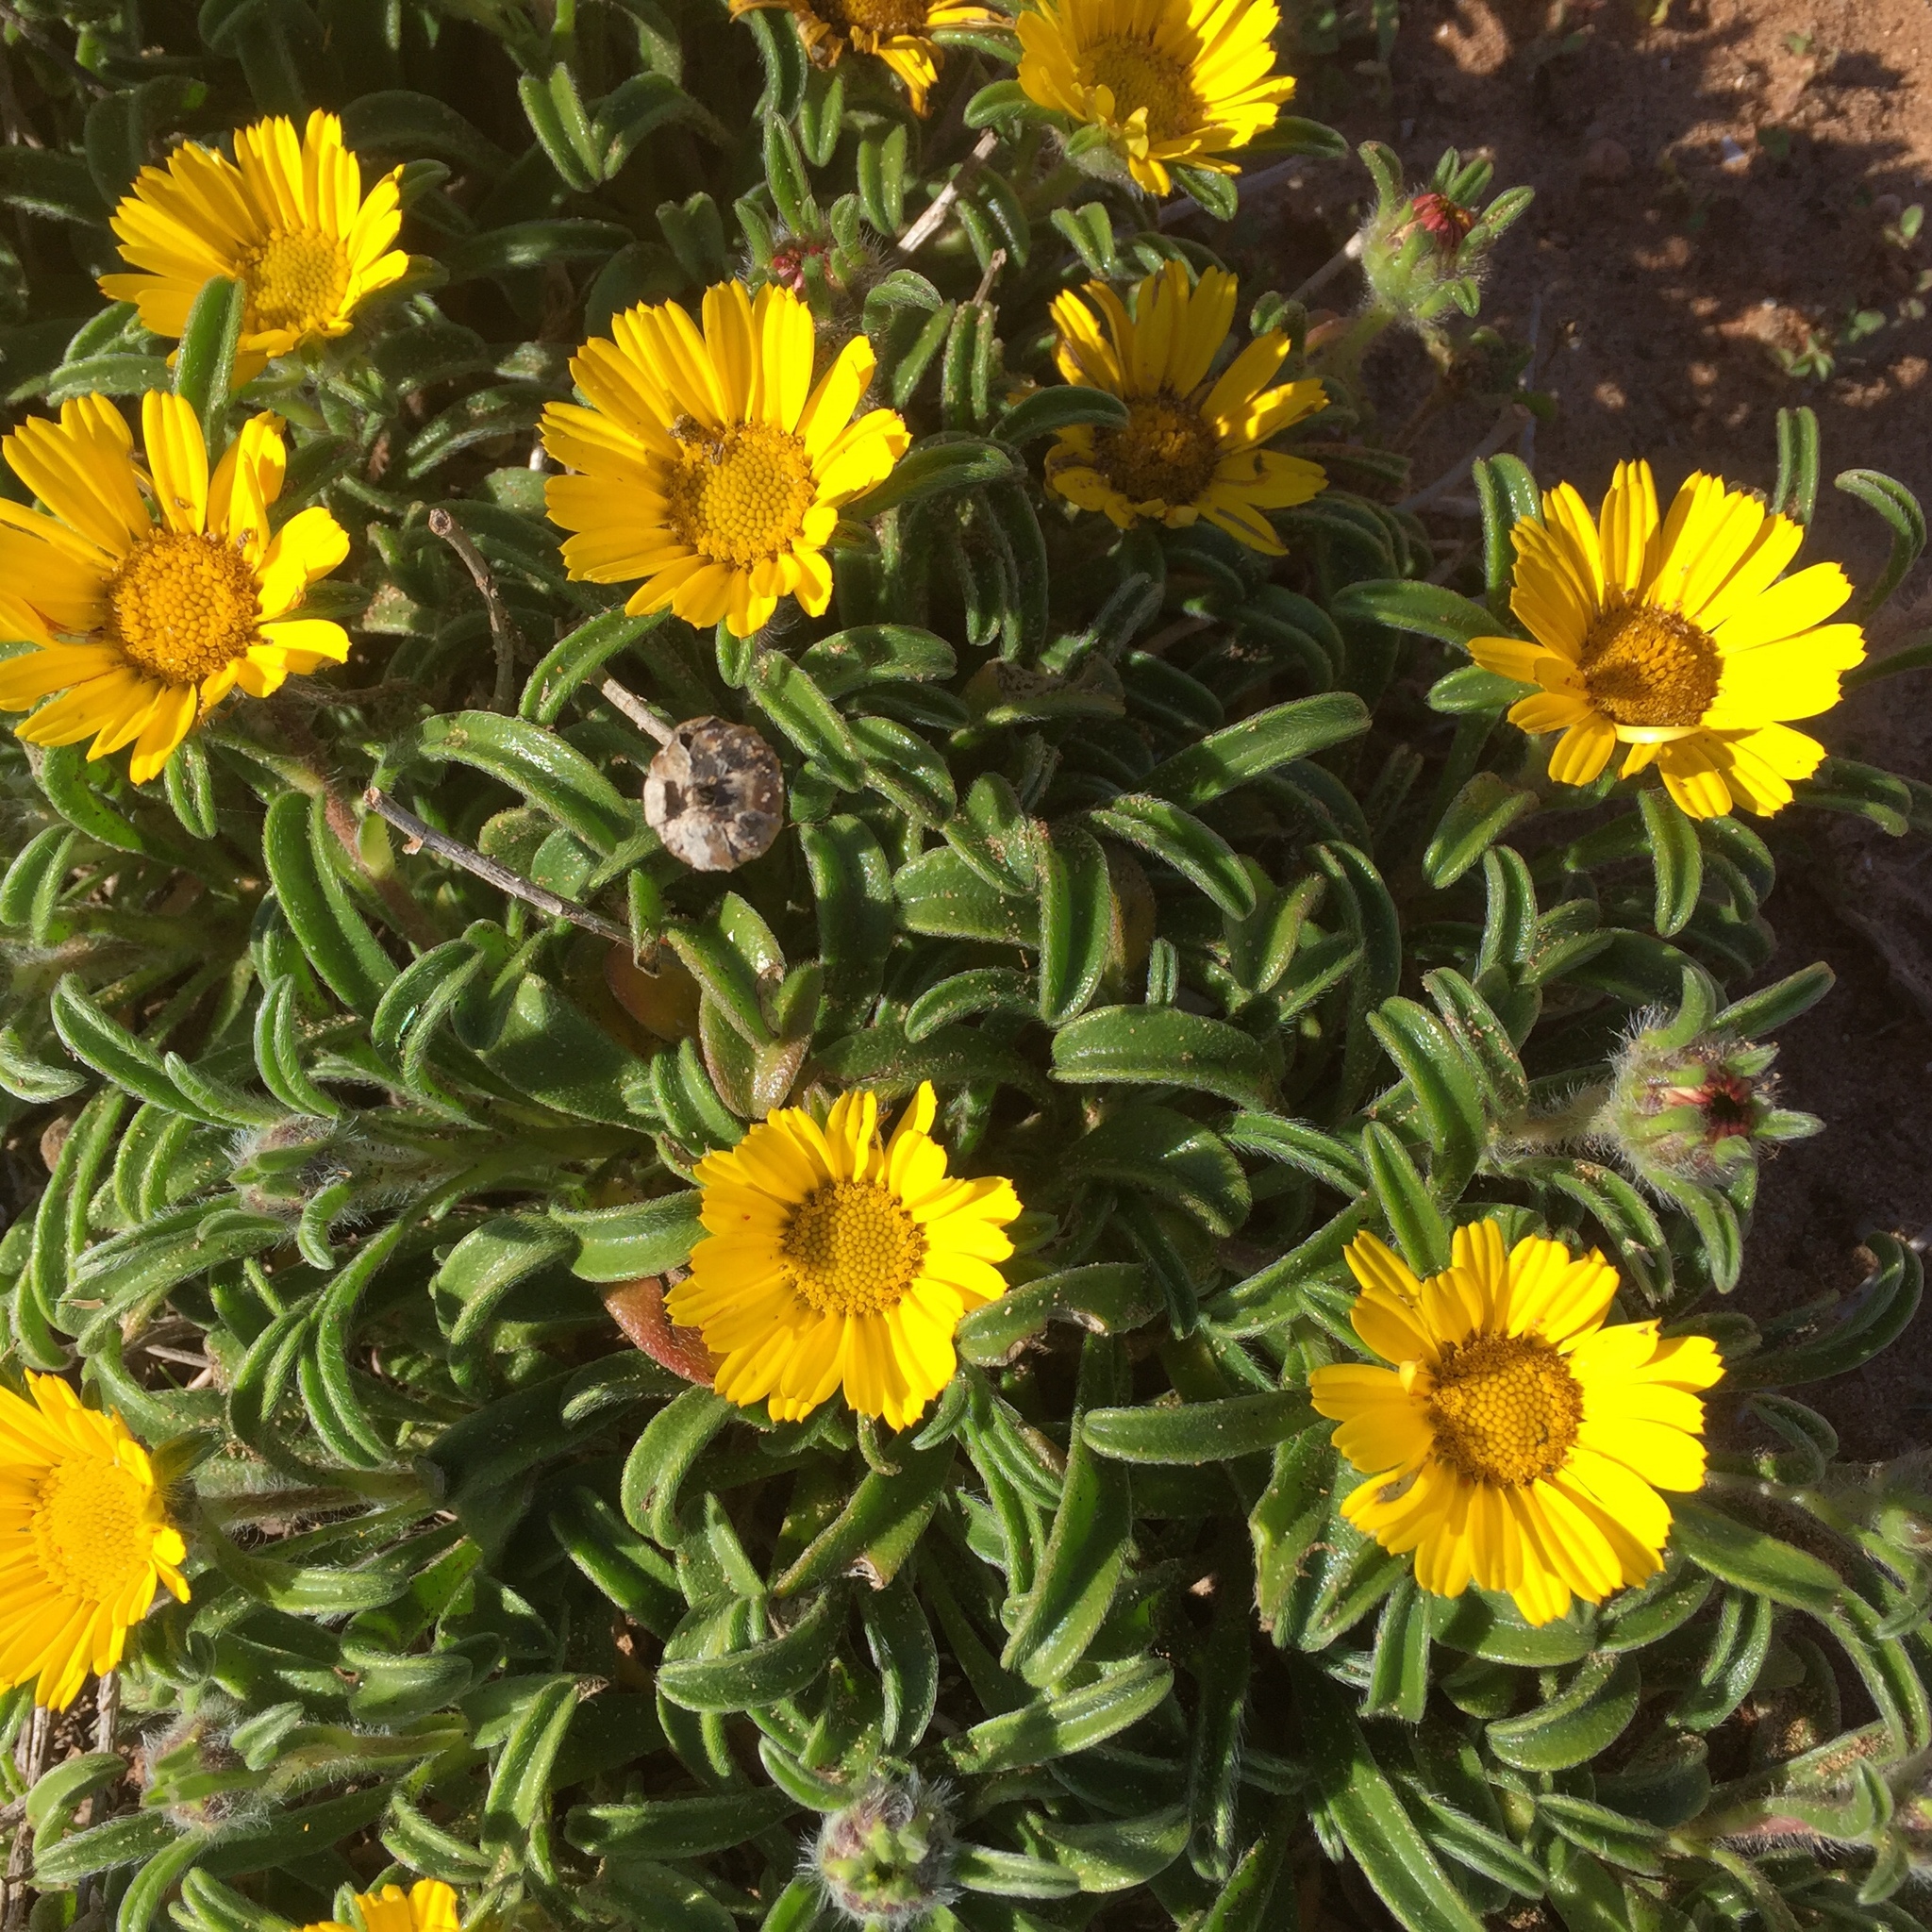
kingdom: Plantae
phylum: Tracheophyta
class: Magnoliopsida
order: Asterales
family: Asteraceae
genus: Pallenis
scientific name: Pallenis maritima
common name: Golden coin daisy
